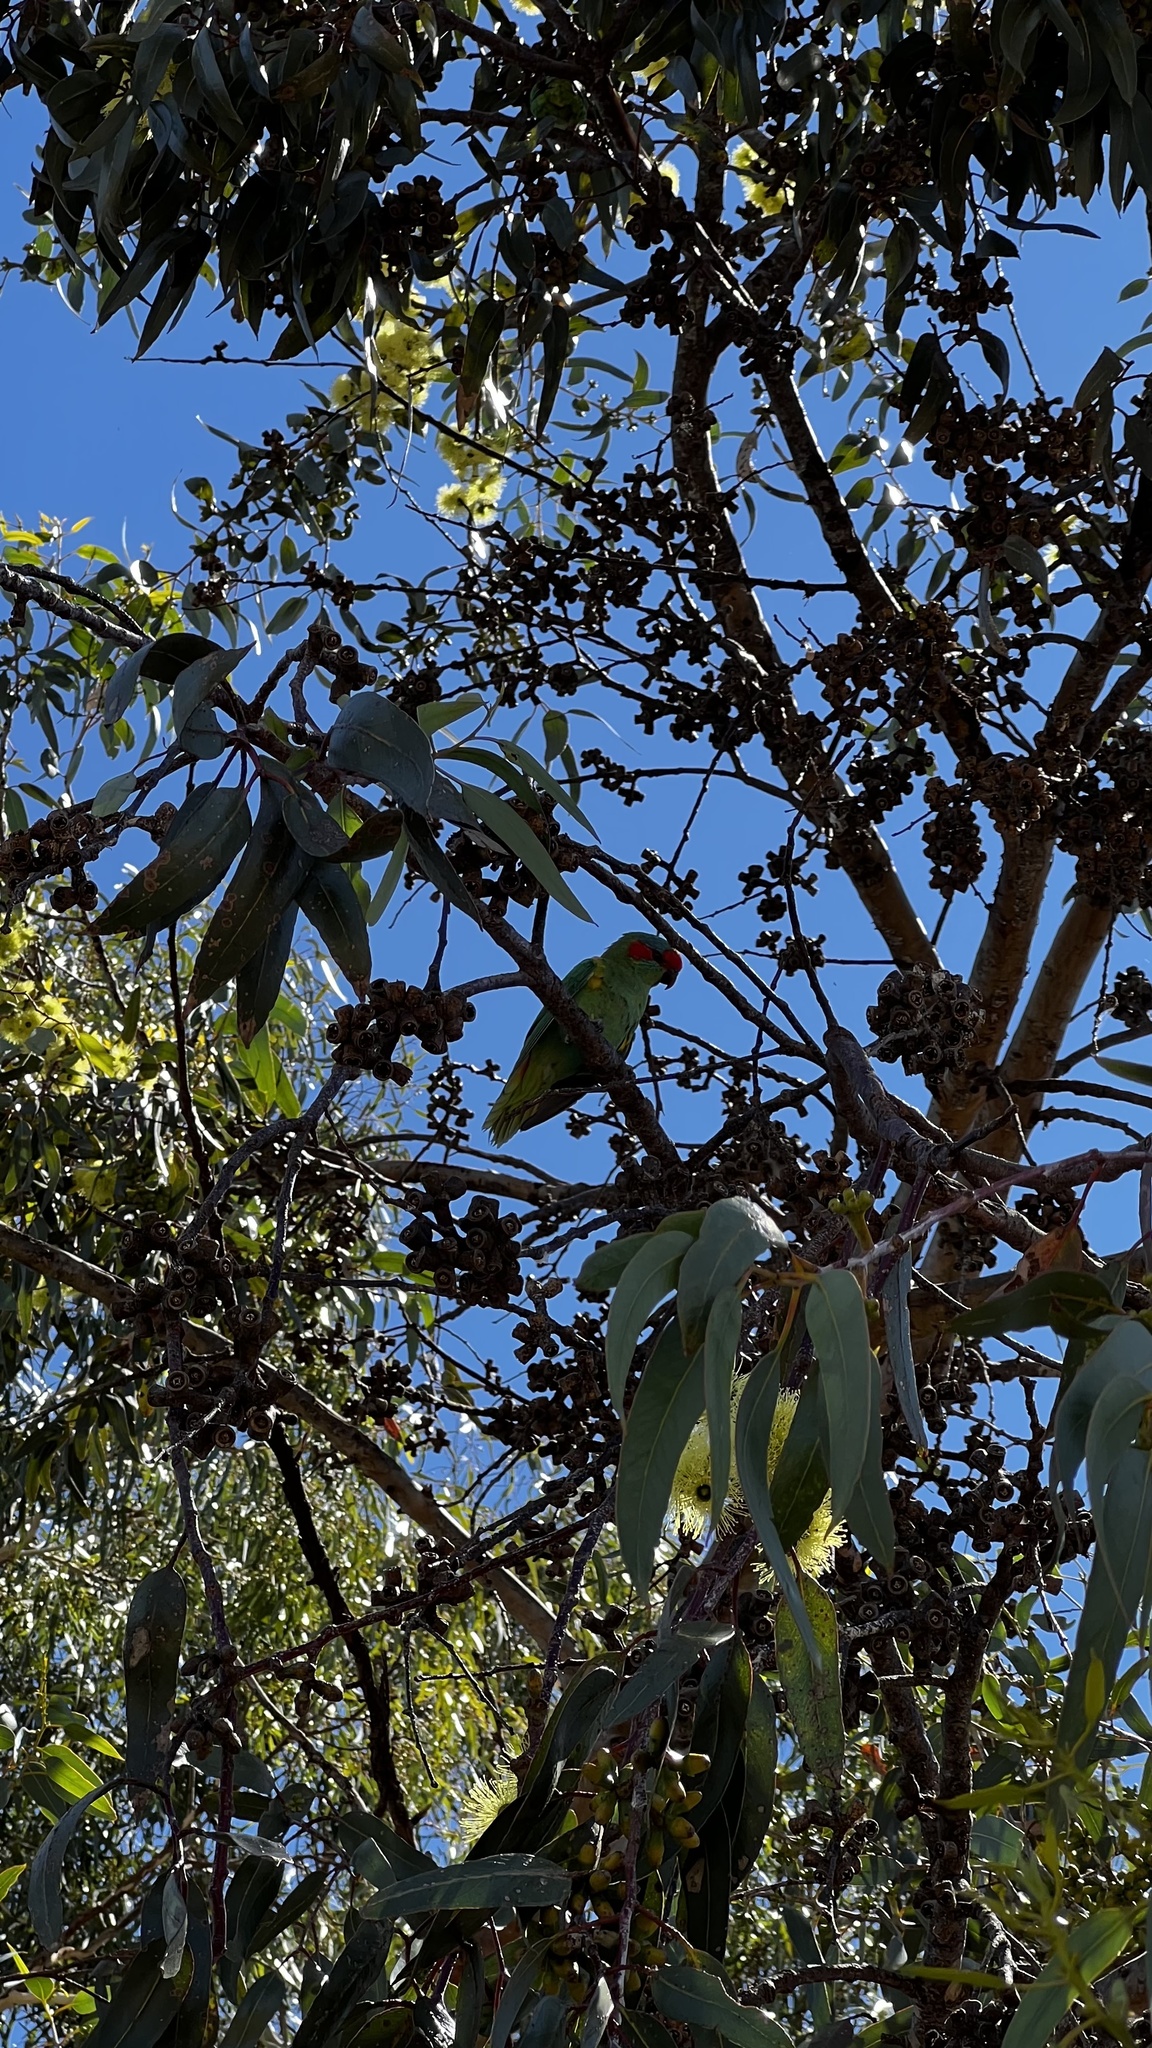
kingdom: Animalia
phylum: Chordata
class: Aves
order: Psittaciformes
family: Psittacidae
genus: Glossopsitta
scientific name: Glossopsitta concinna
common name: Musk lorikeet
